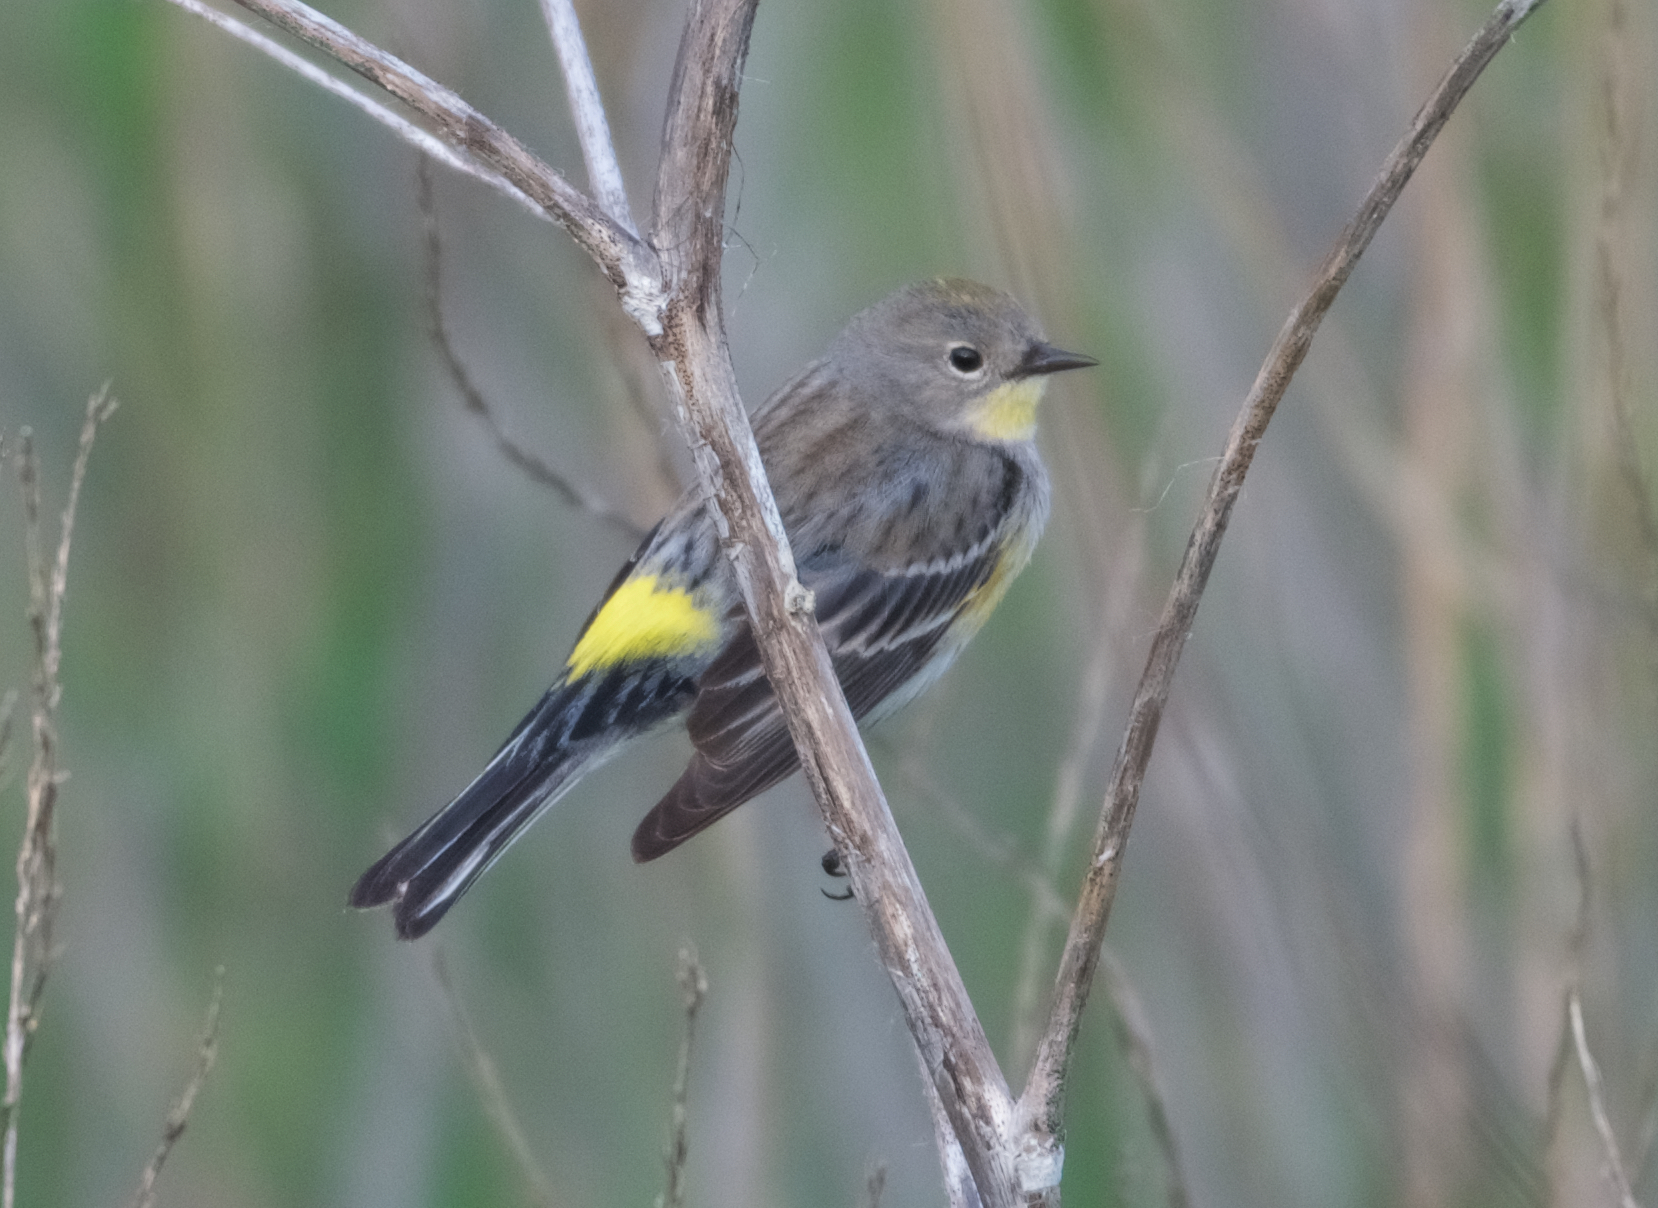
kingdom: Animalia
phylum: Chordata
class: Aves
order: Passeriformes
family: Parulidae
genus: Setophaga
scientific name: Setophaga coronata
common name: Myrtle warbler
